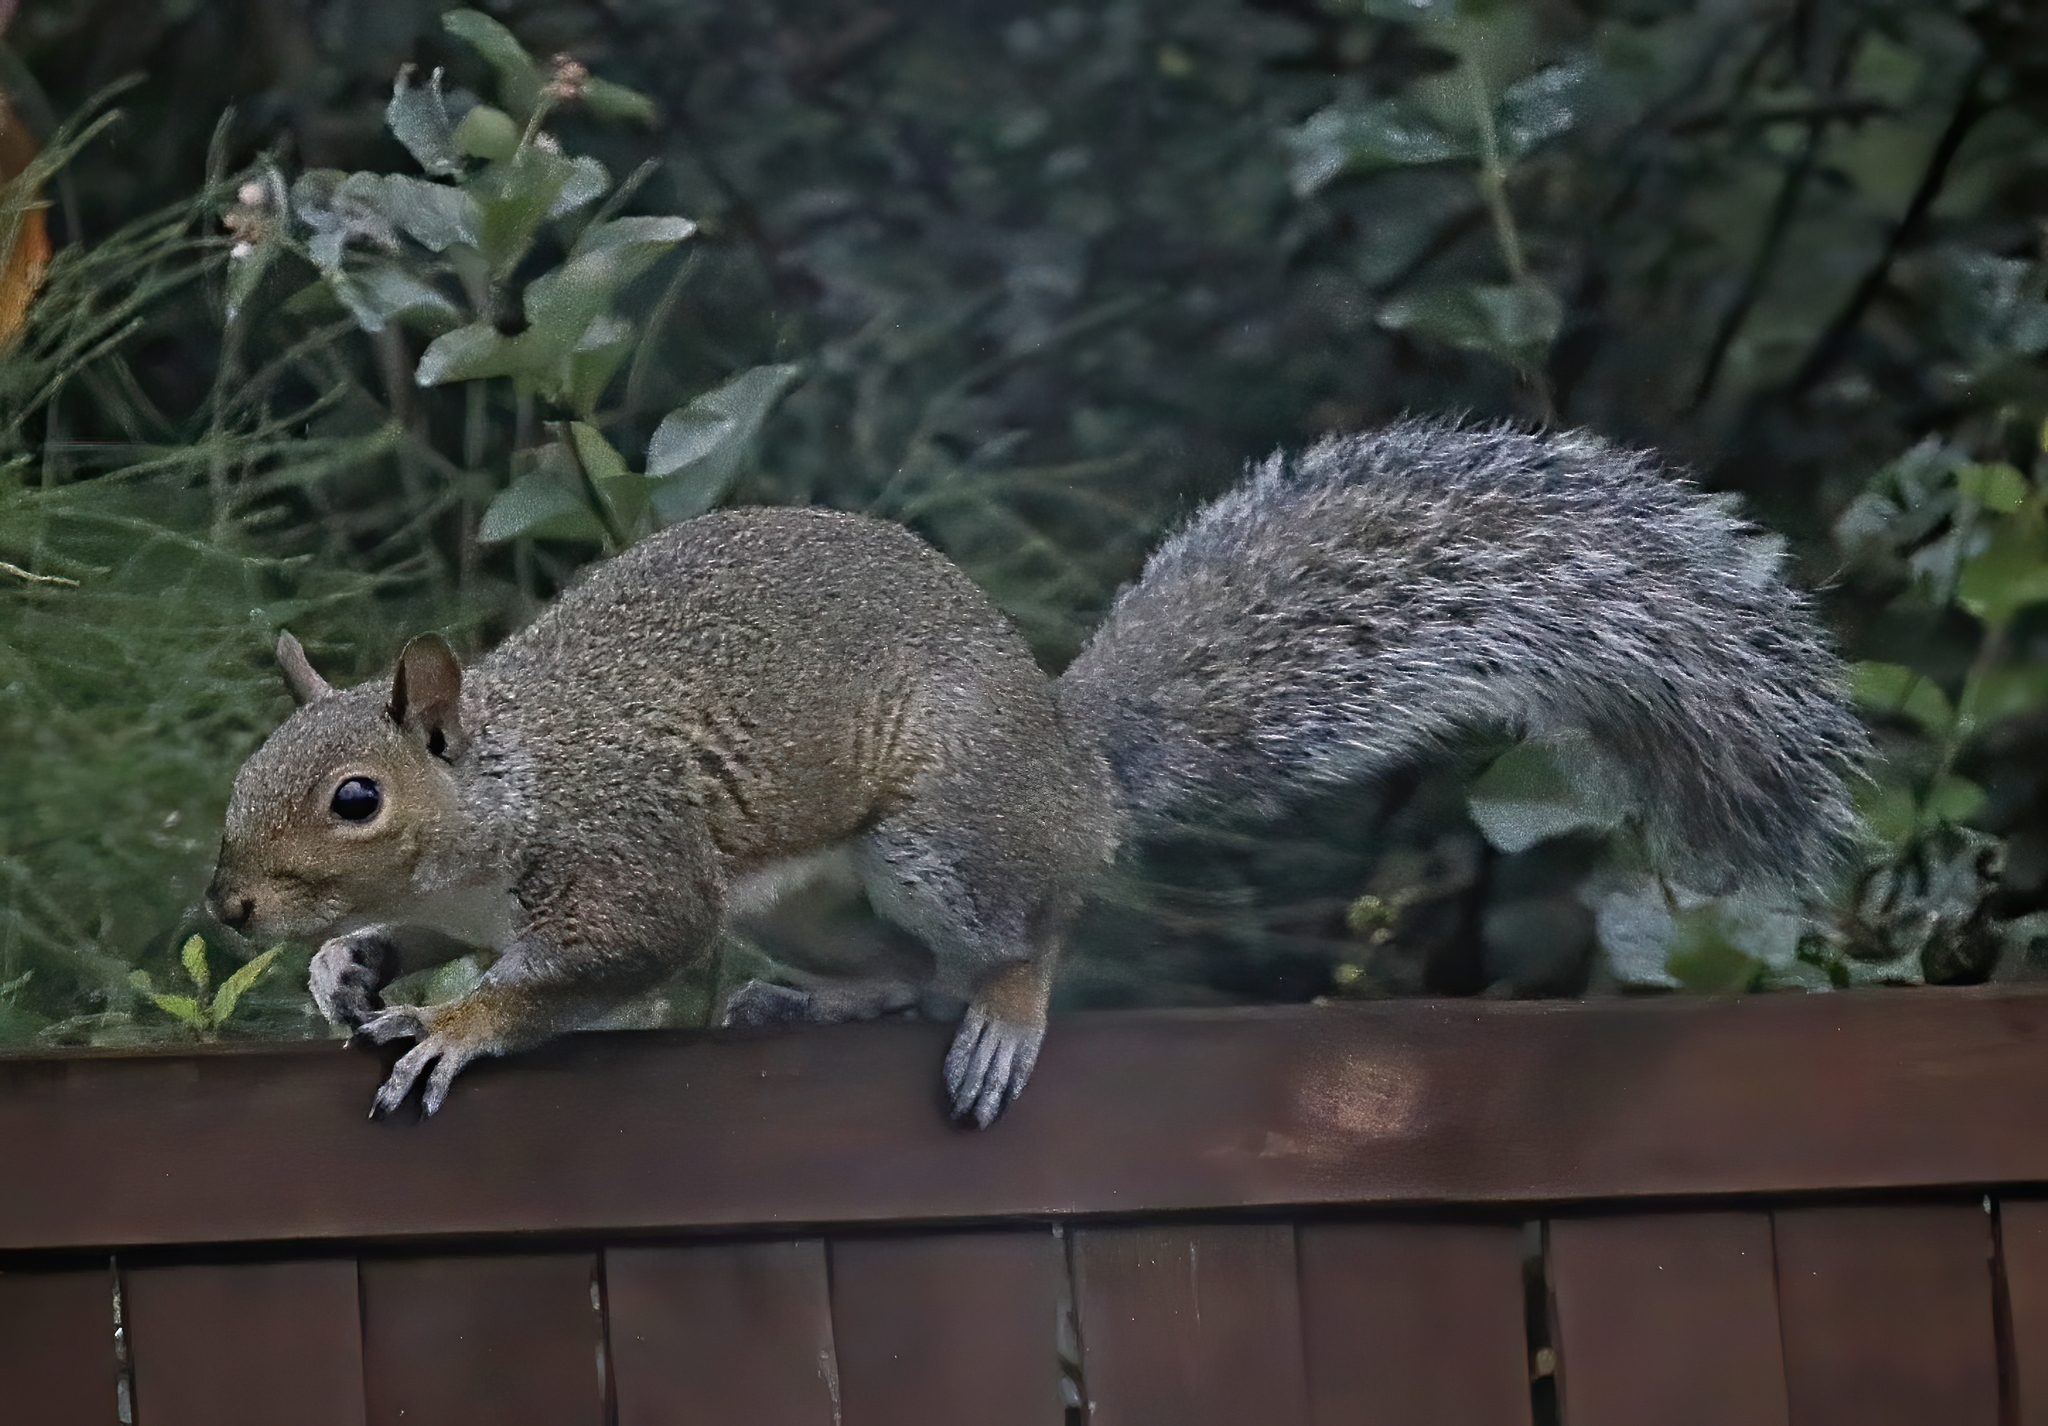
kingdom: Animalia
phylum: Chordata
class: Mammalia
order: Rodentia
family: Sciuridae
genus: Sciurus
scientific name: Sciurus carolinensis
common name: Eastern gray squirrel
